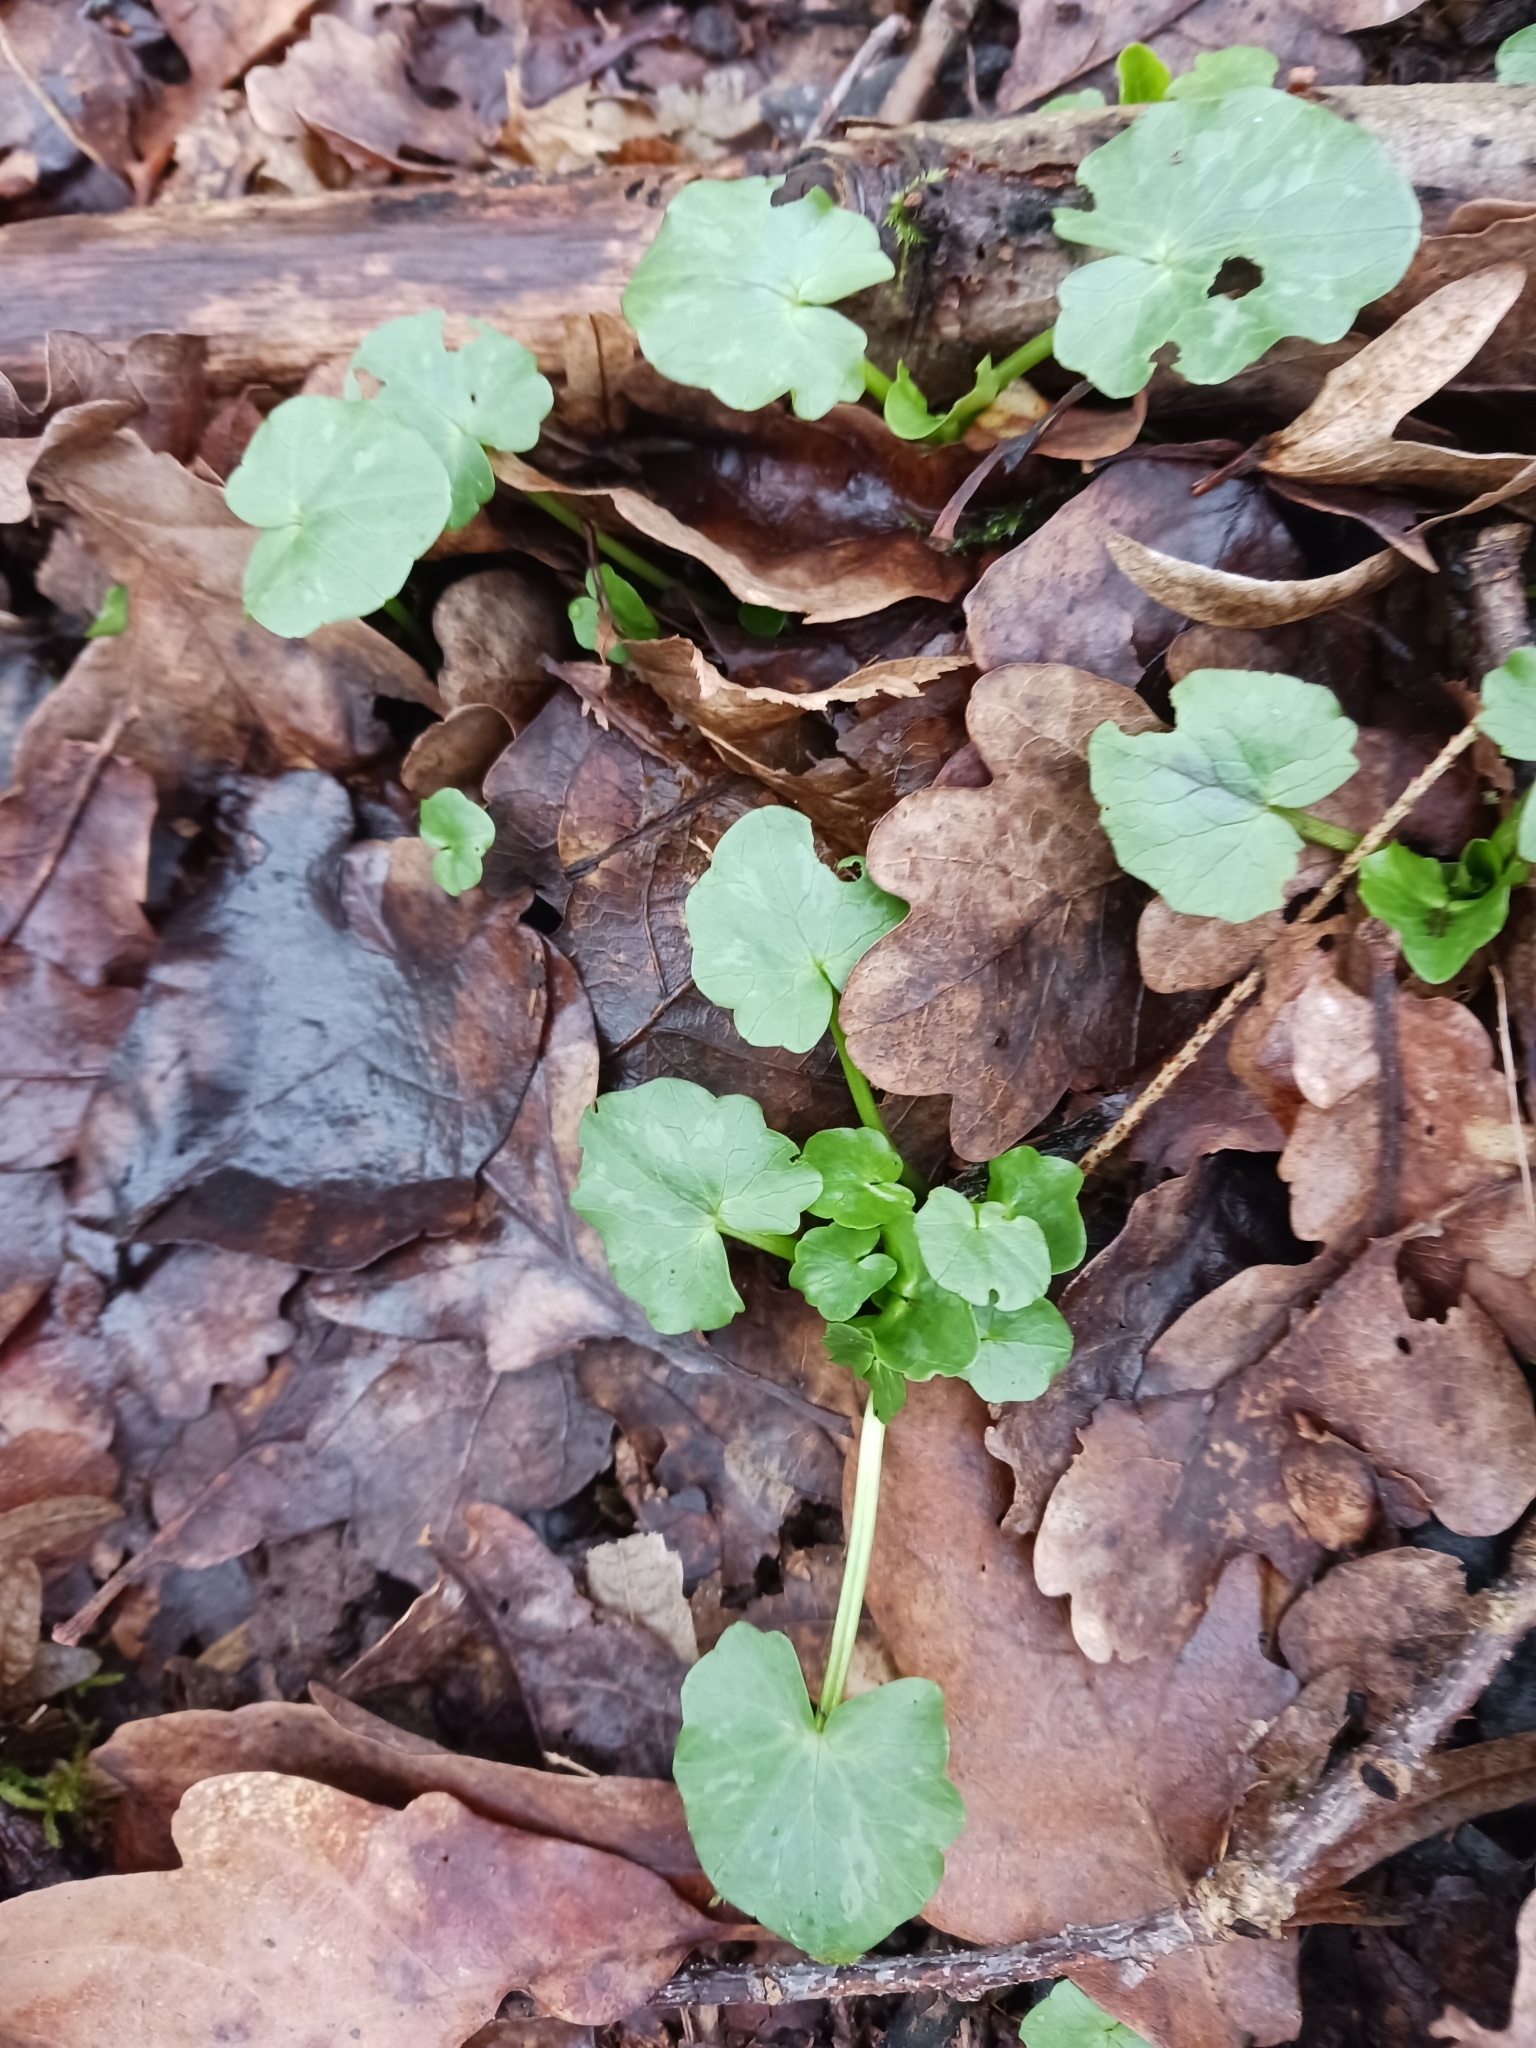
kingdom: Plantae
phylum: Tracheophyta
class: Magnoliopsida
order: Ranunculales
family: Ranunculaceae
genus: Ficaria
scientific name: Ficaria verna
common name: Lesser celandine
